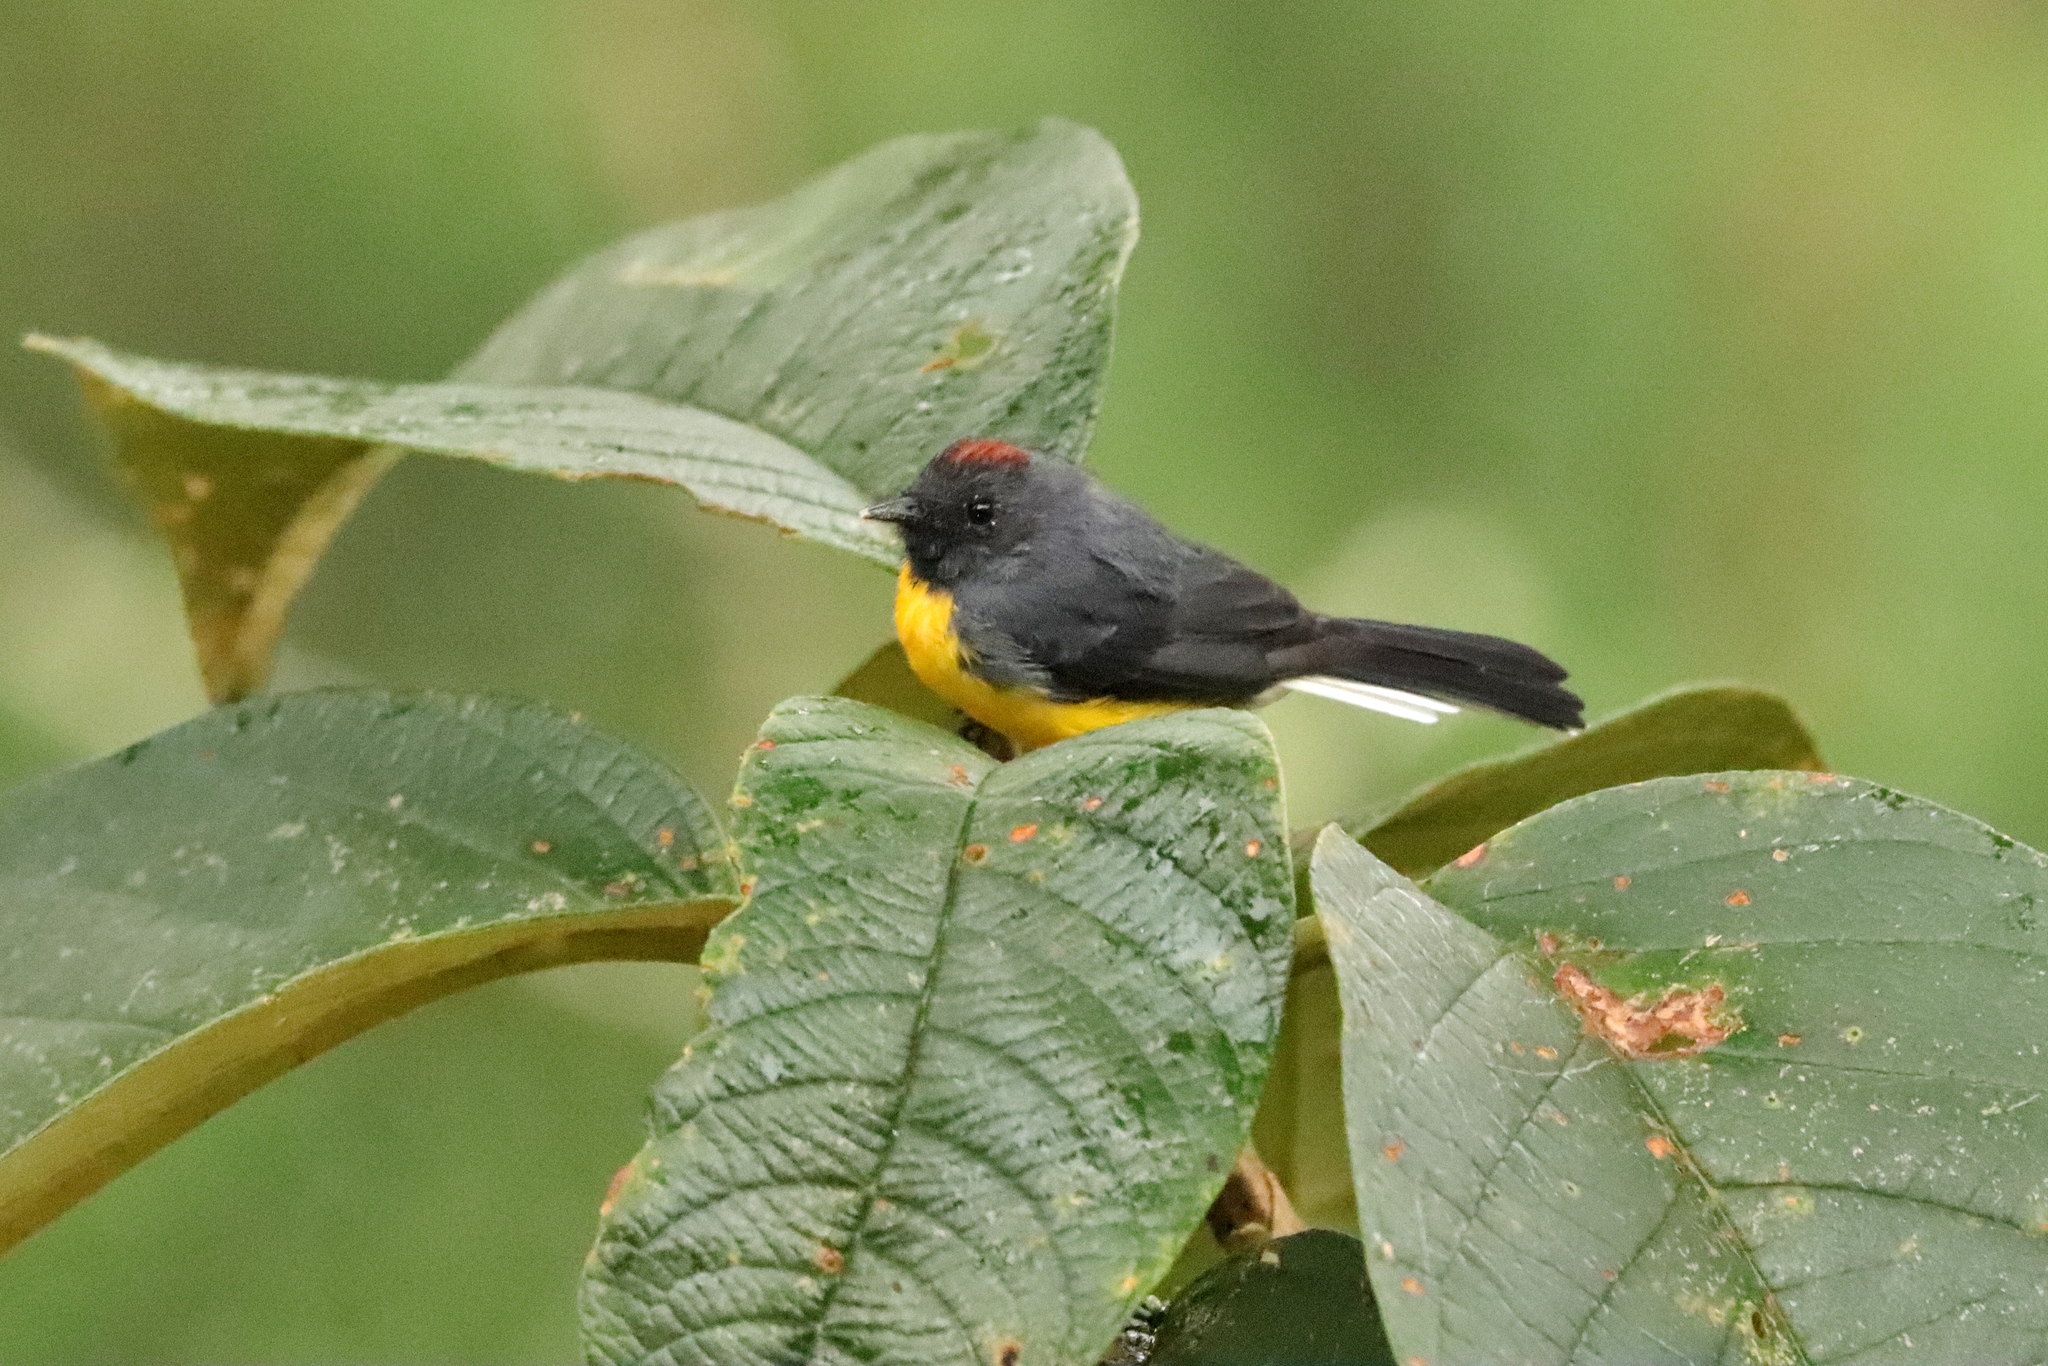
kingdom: Animalia
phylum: Chordata
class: Aves
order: Passeriformes
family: Parulidae
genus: Myioborus
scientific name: Myioborus miniatus
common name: Slate-throated redstart
